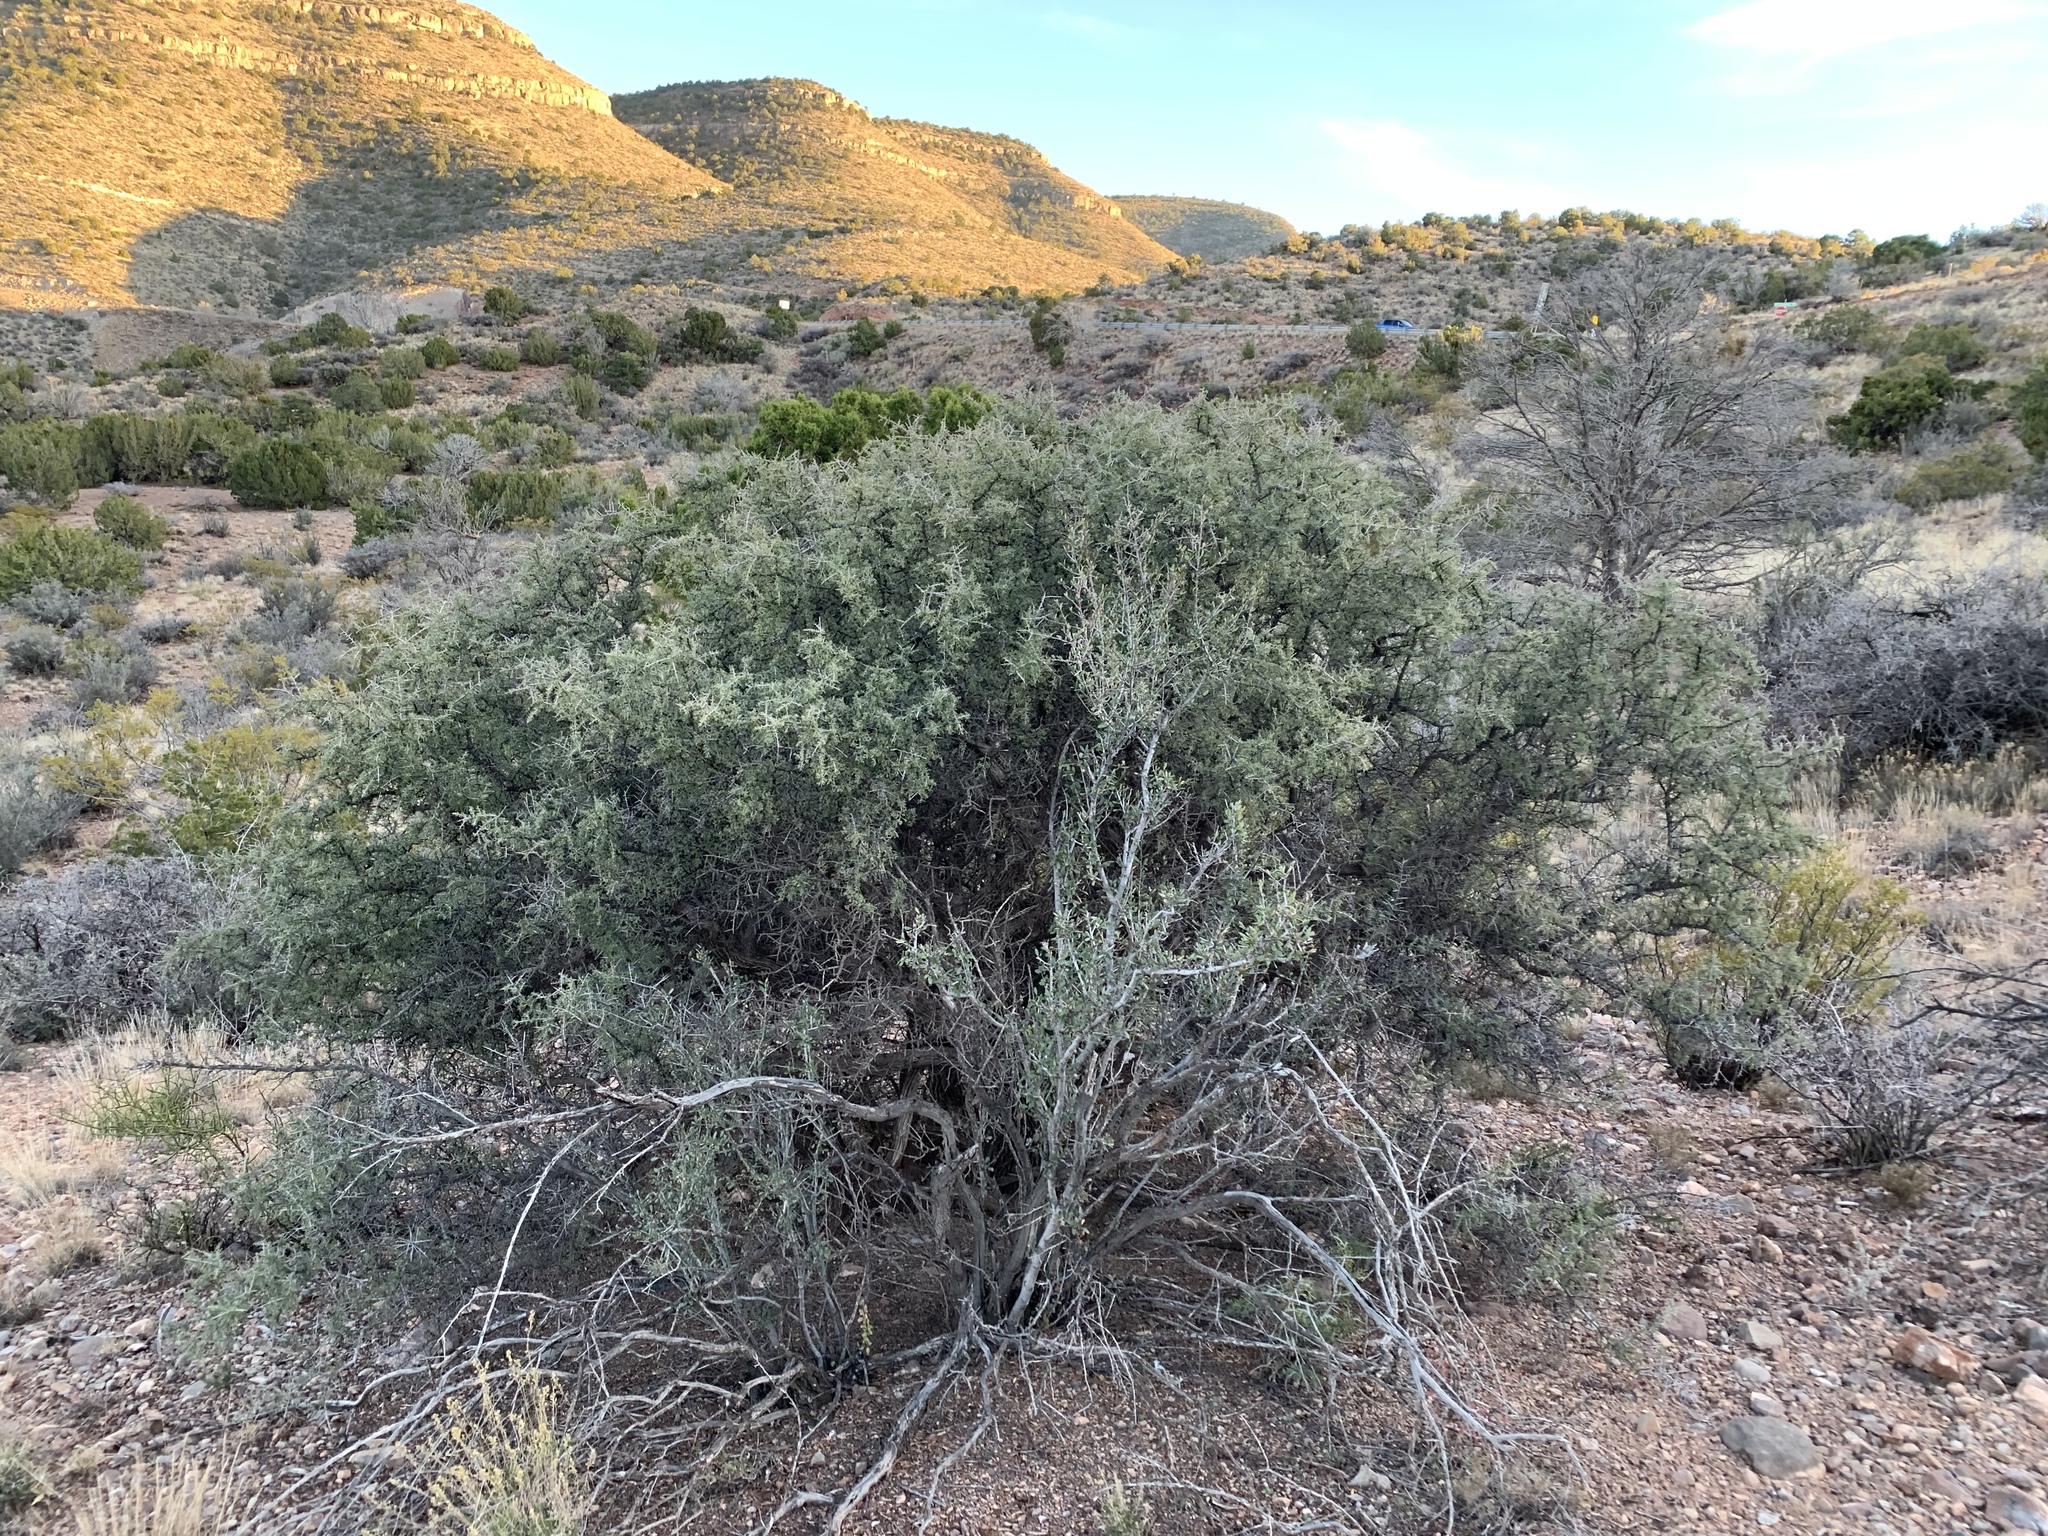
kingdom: Plantae
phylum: Tracheophyta
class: Magnoliopsida
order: Rosales
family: Rhamnaceae
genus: Condalia
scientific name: Condalia warnockii
